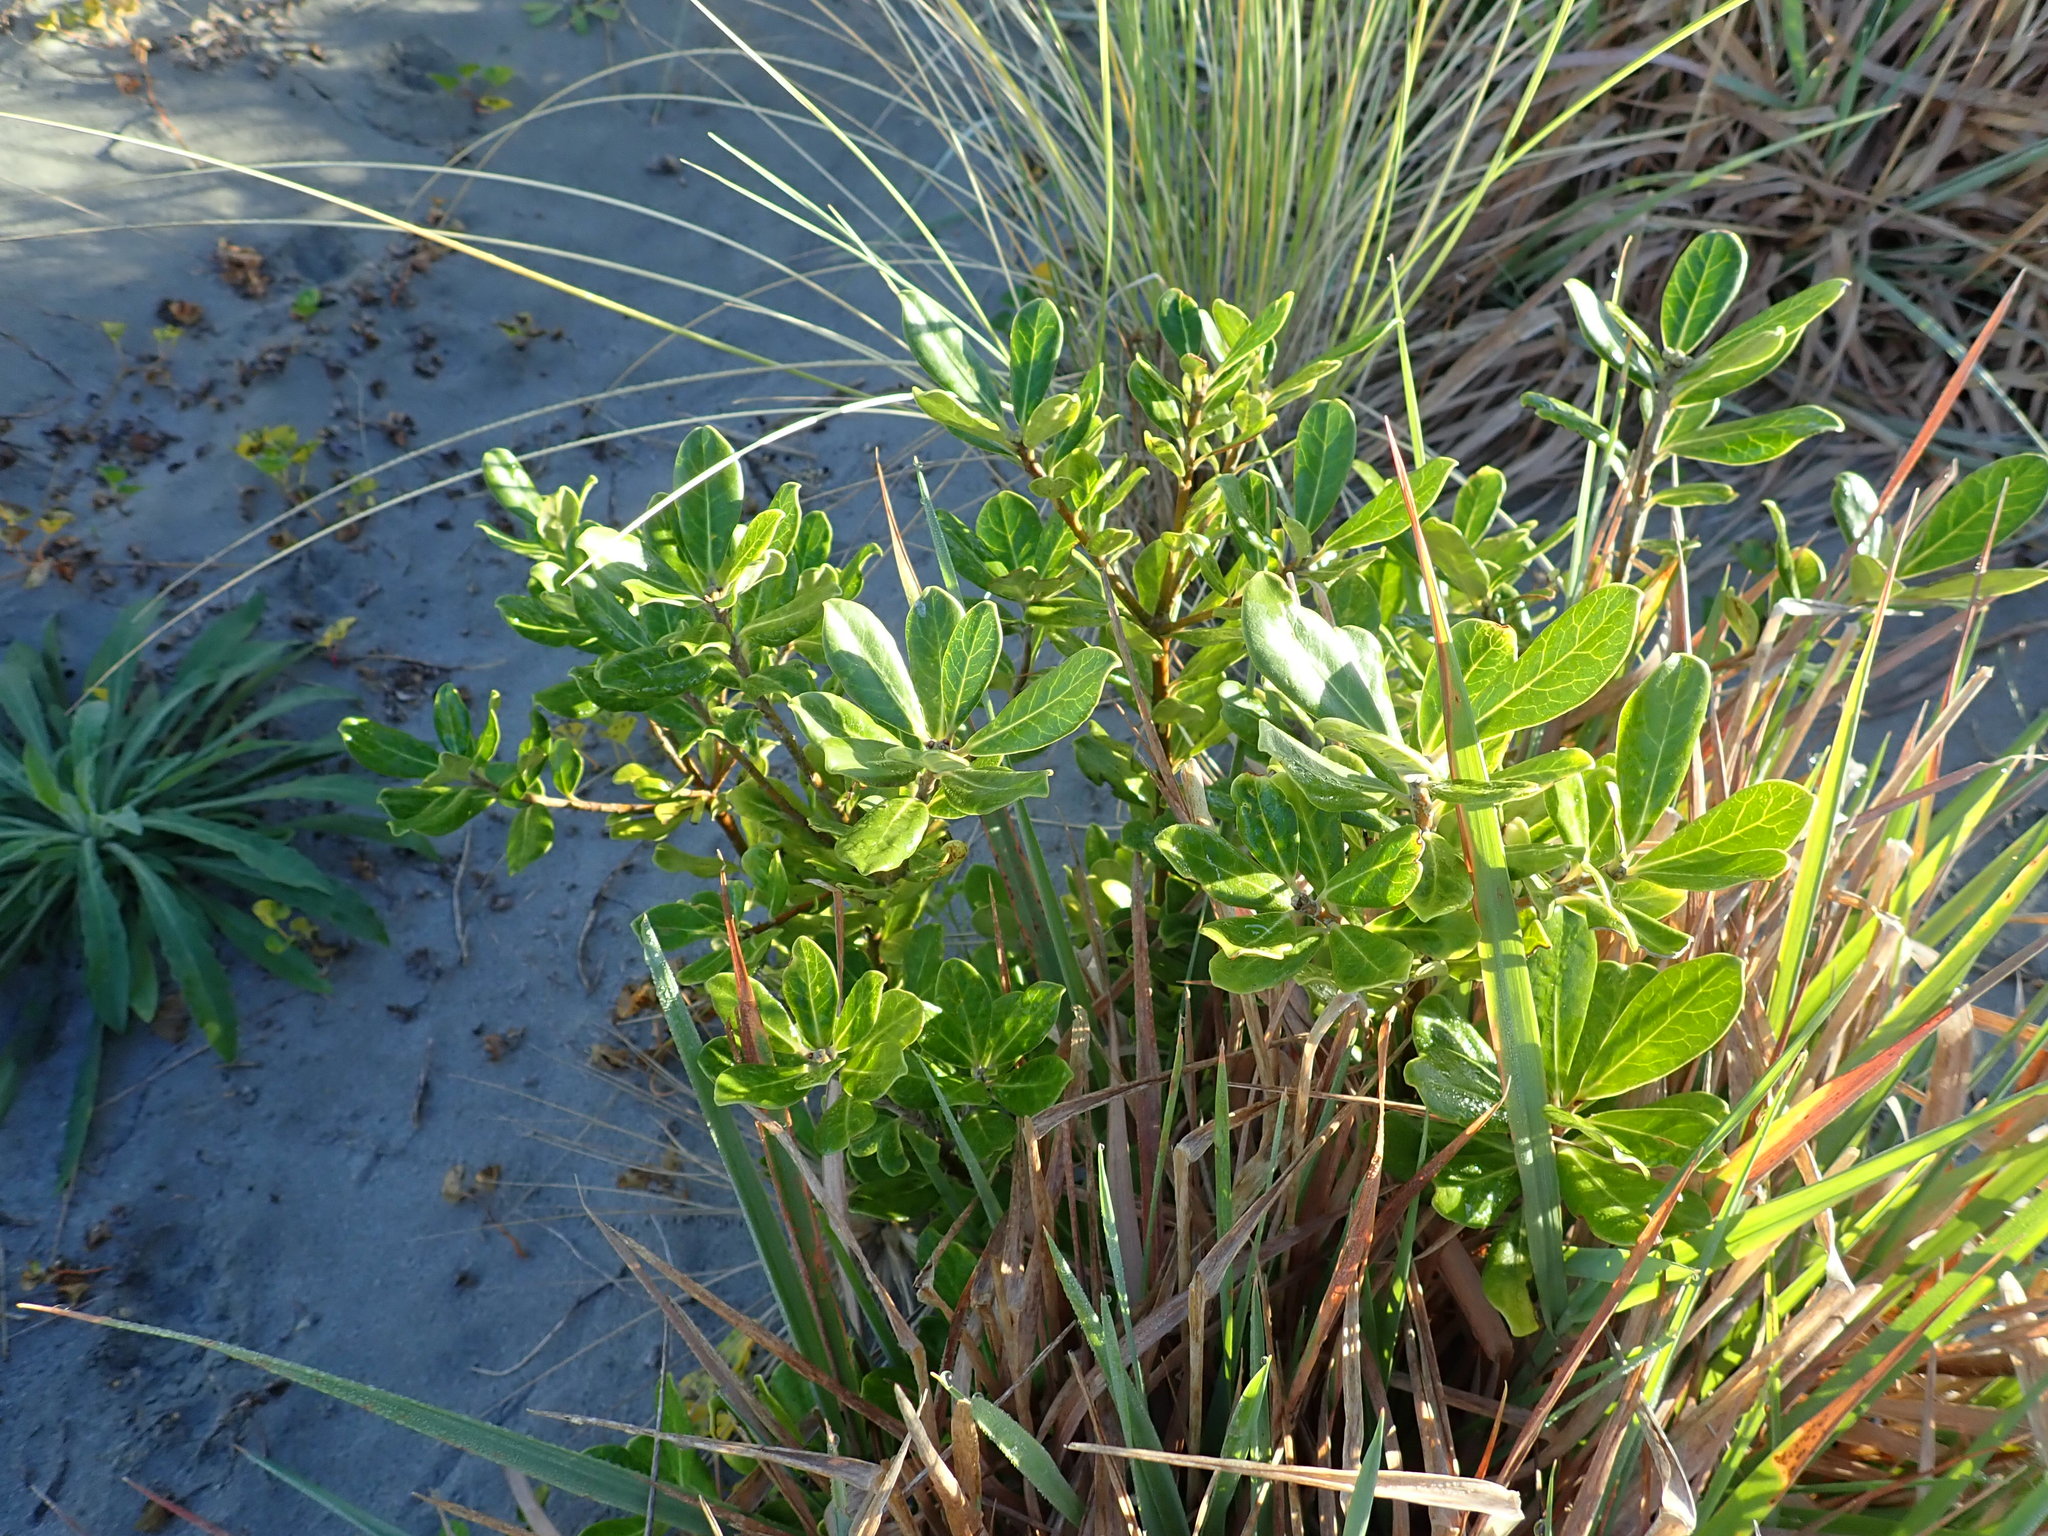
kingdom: Plantae
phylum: Tracheophyta
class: Magnoliopsida
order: Apiales
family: Pittosporaceae
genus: Pittosporum
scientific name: Pittosporum crassifolium
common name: Karo
